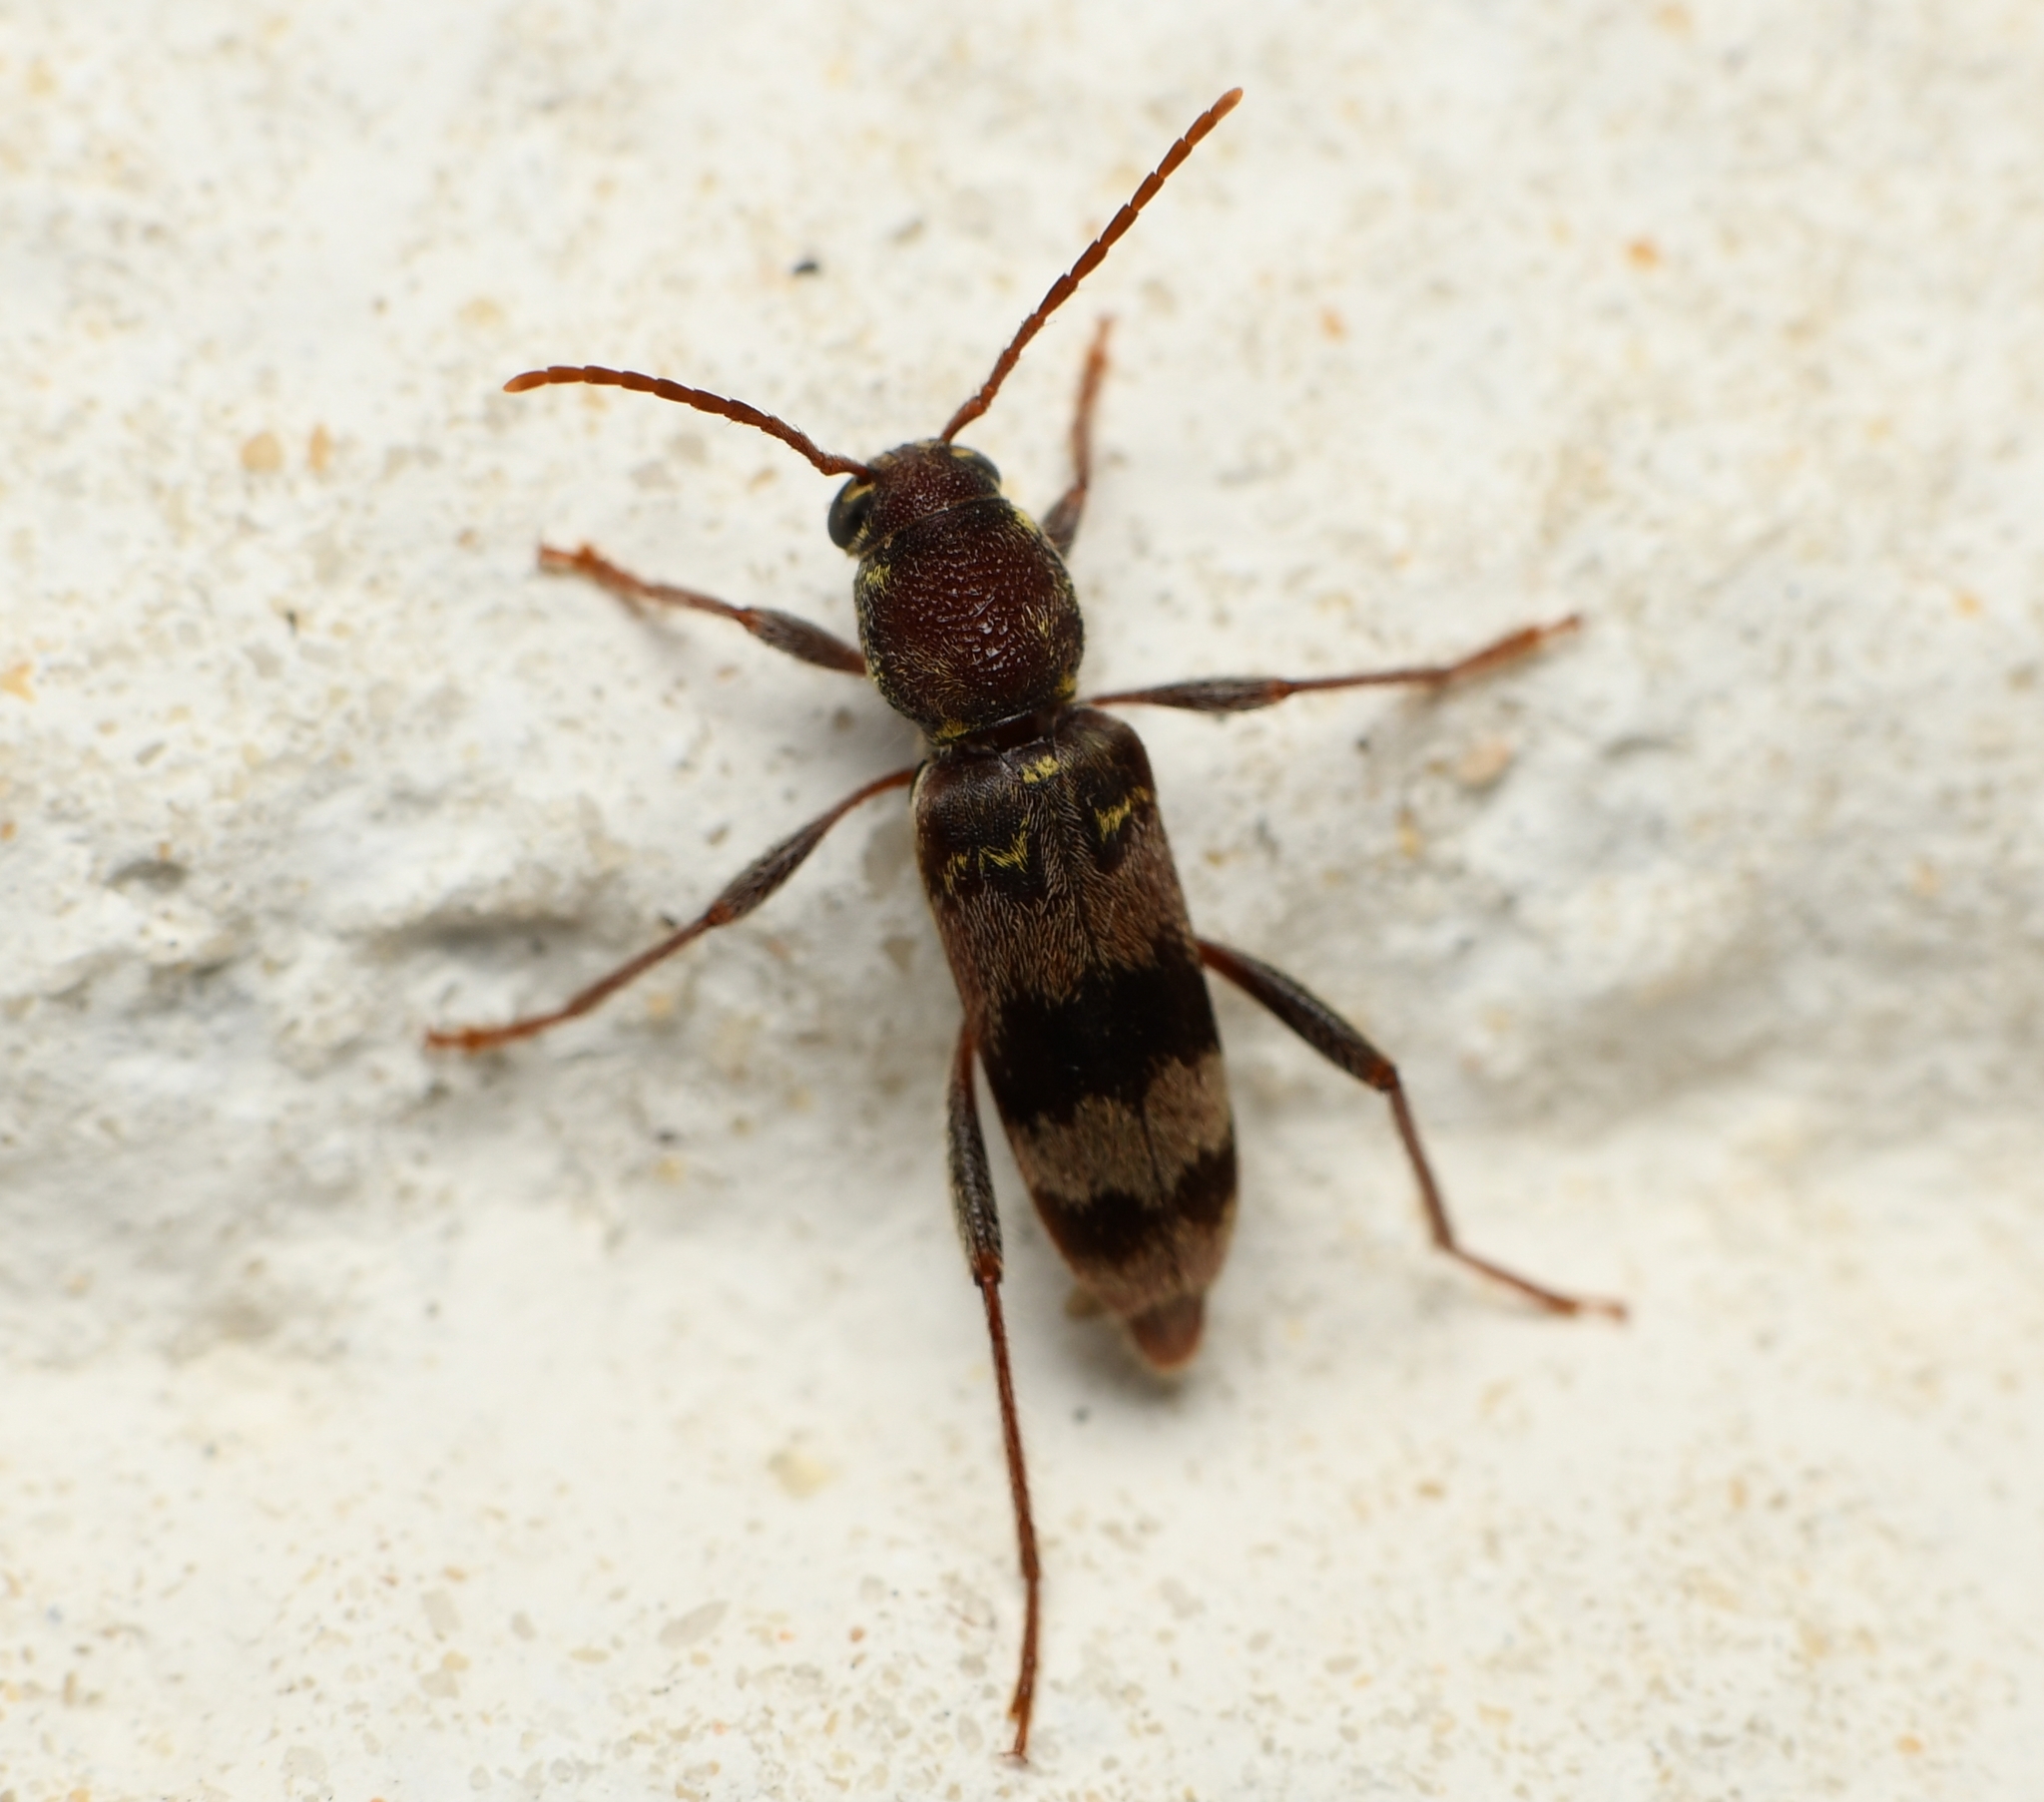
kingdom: Animalia
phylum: Arthropoda
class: Insecta
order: Coleoptera
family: Cerambycidae
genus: Xylotrechus
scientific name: Xylotrechus colonus
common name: Long-horned beetle
